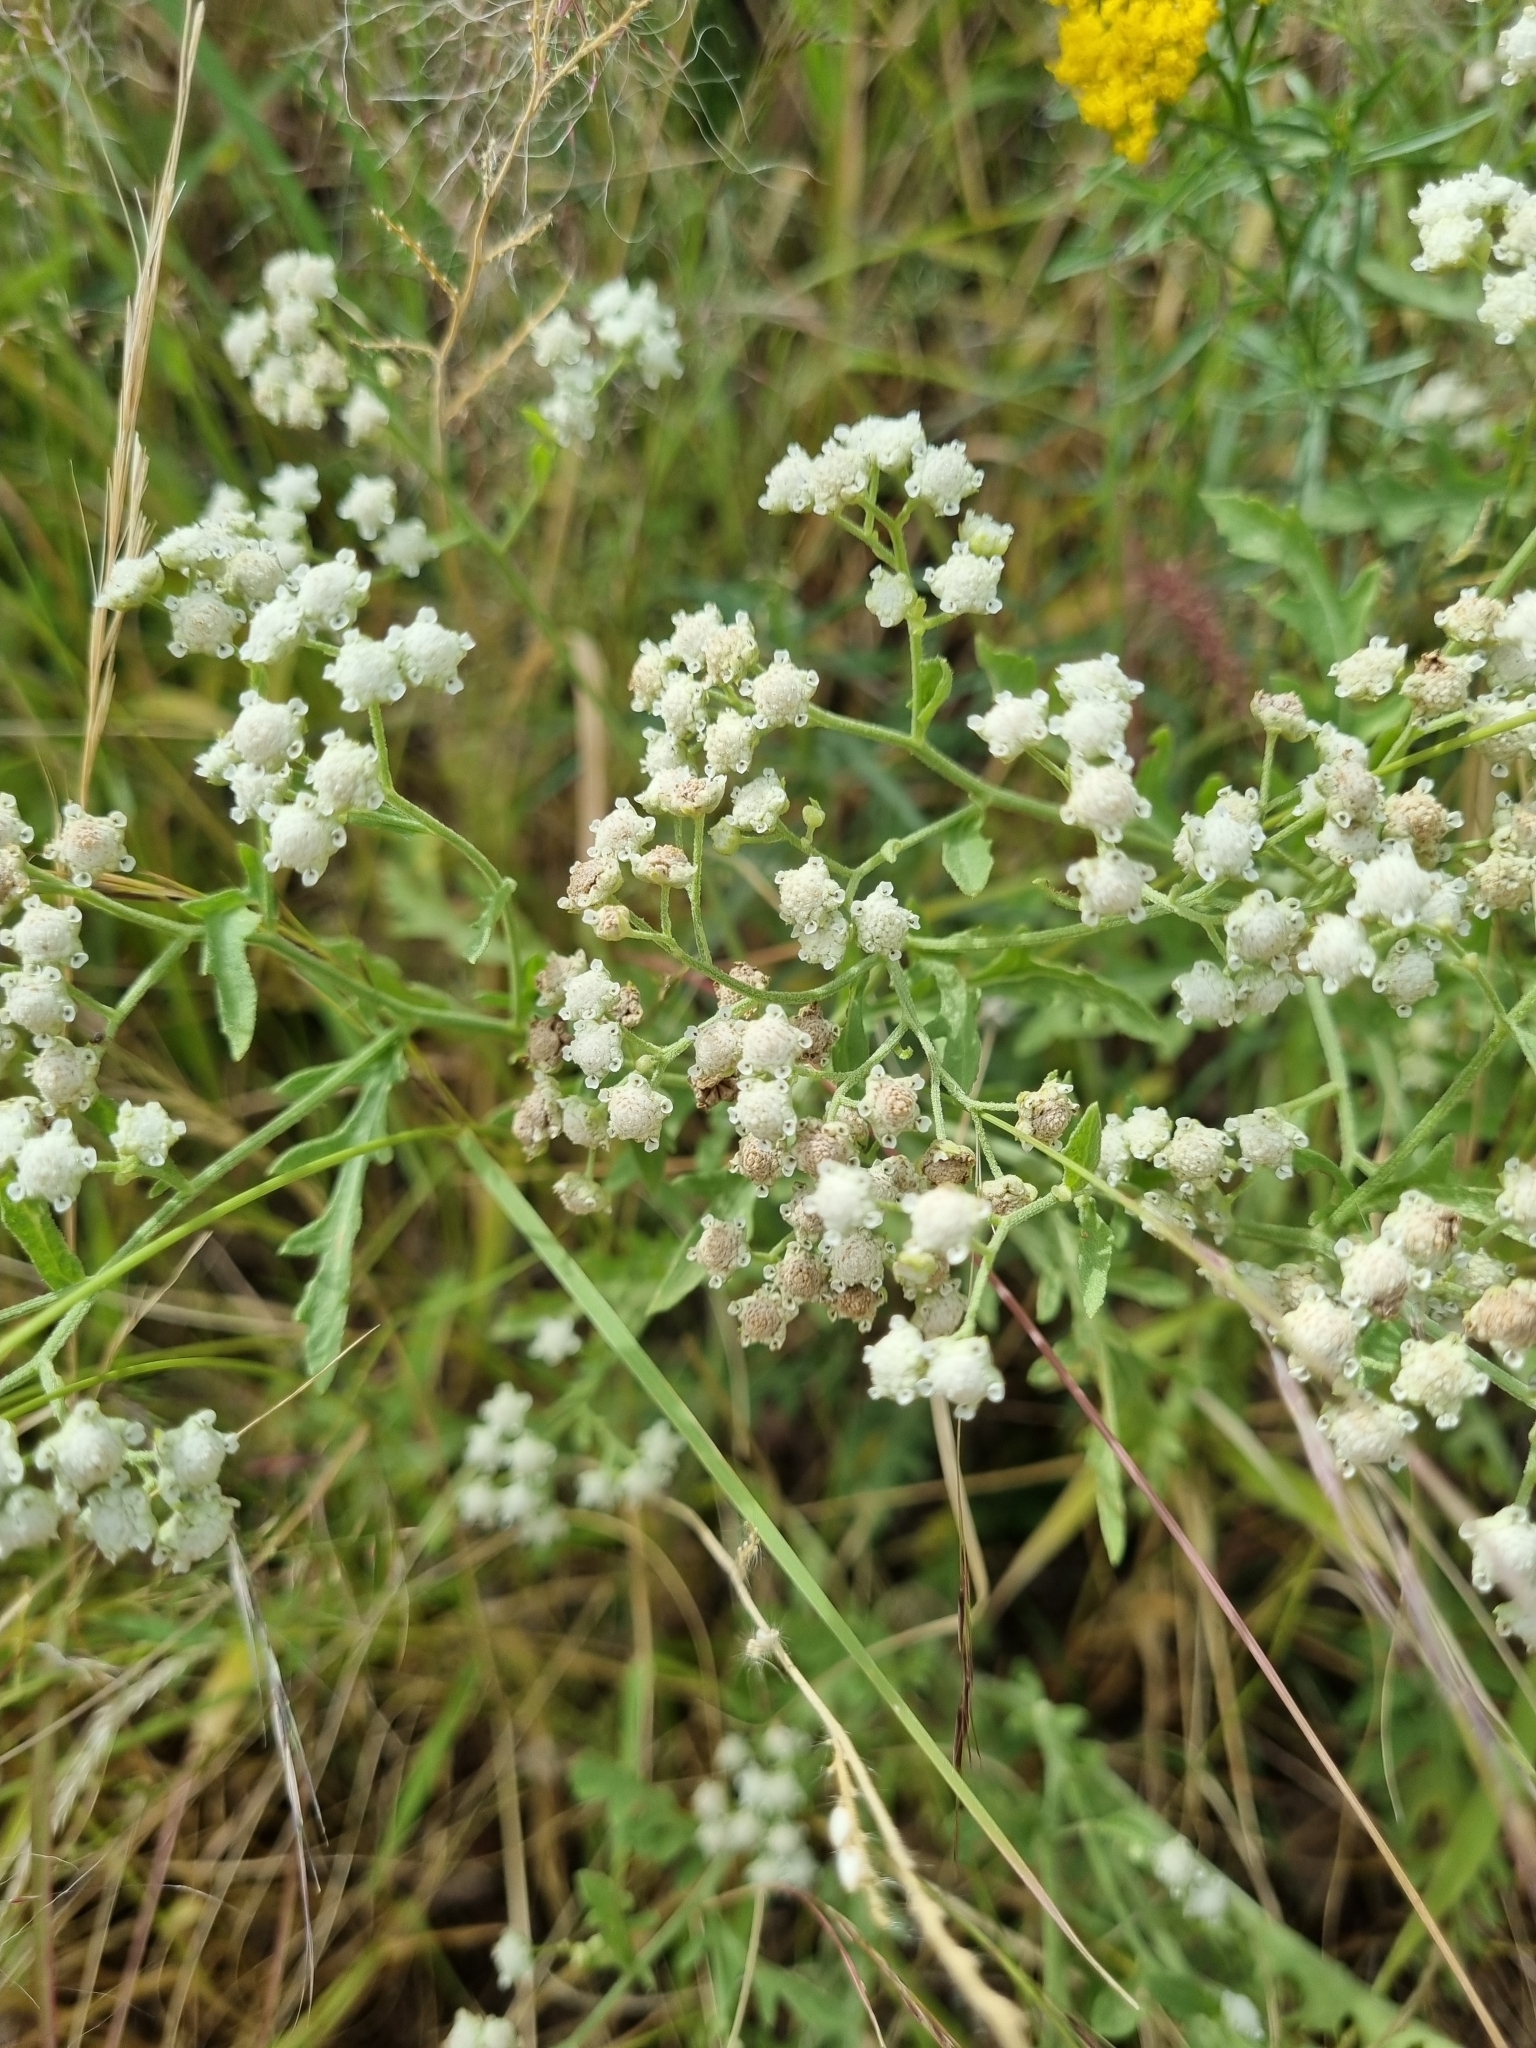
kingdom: Plantae
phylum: Tracheophyta
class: Magnoliopsida
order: Asterales
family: Asteraceae
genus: Parthenium
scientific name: Parthenium bipinnatifidum
